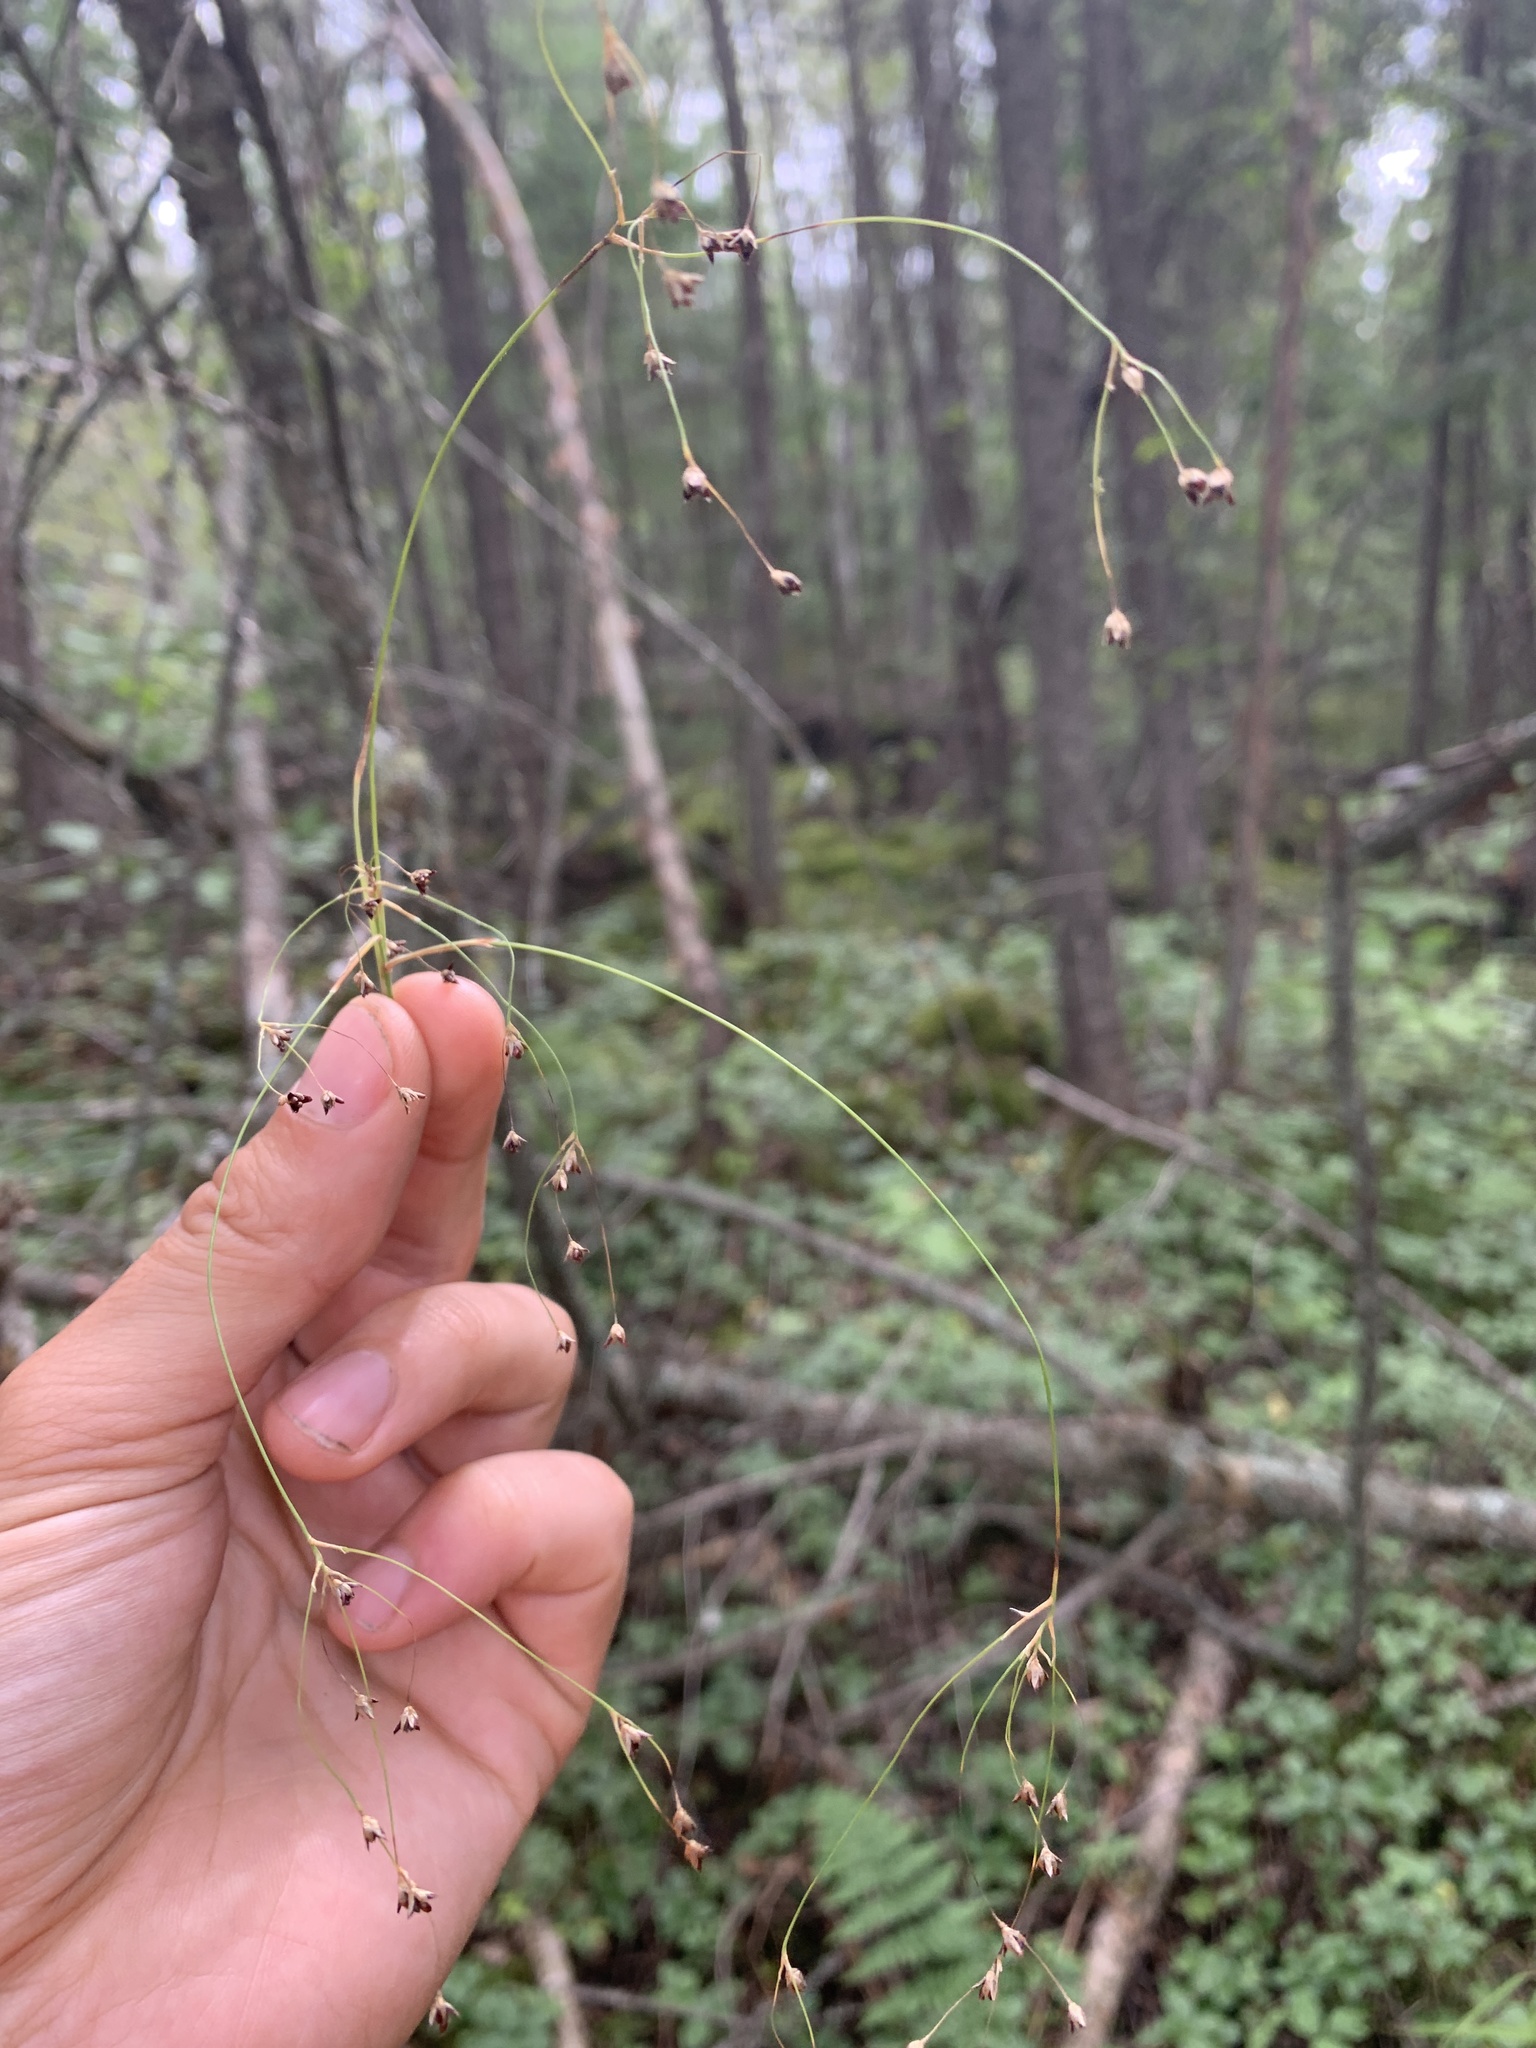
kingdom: Plantae
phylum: Tracheophyta
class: Liliopsida
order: Poales
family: Juncaceae
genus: Luzula
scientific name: Luzula parviflora
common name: Millet woodrush
